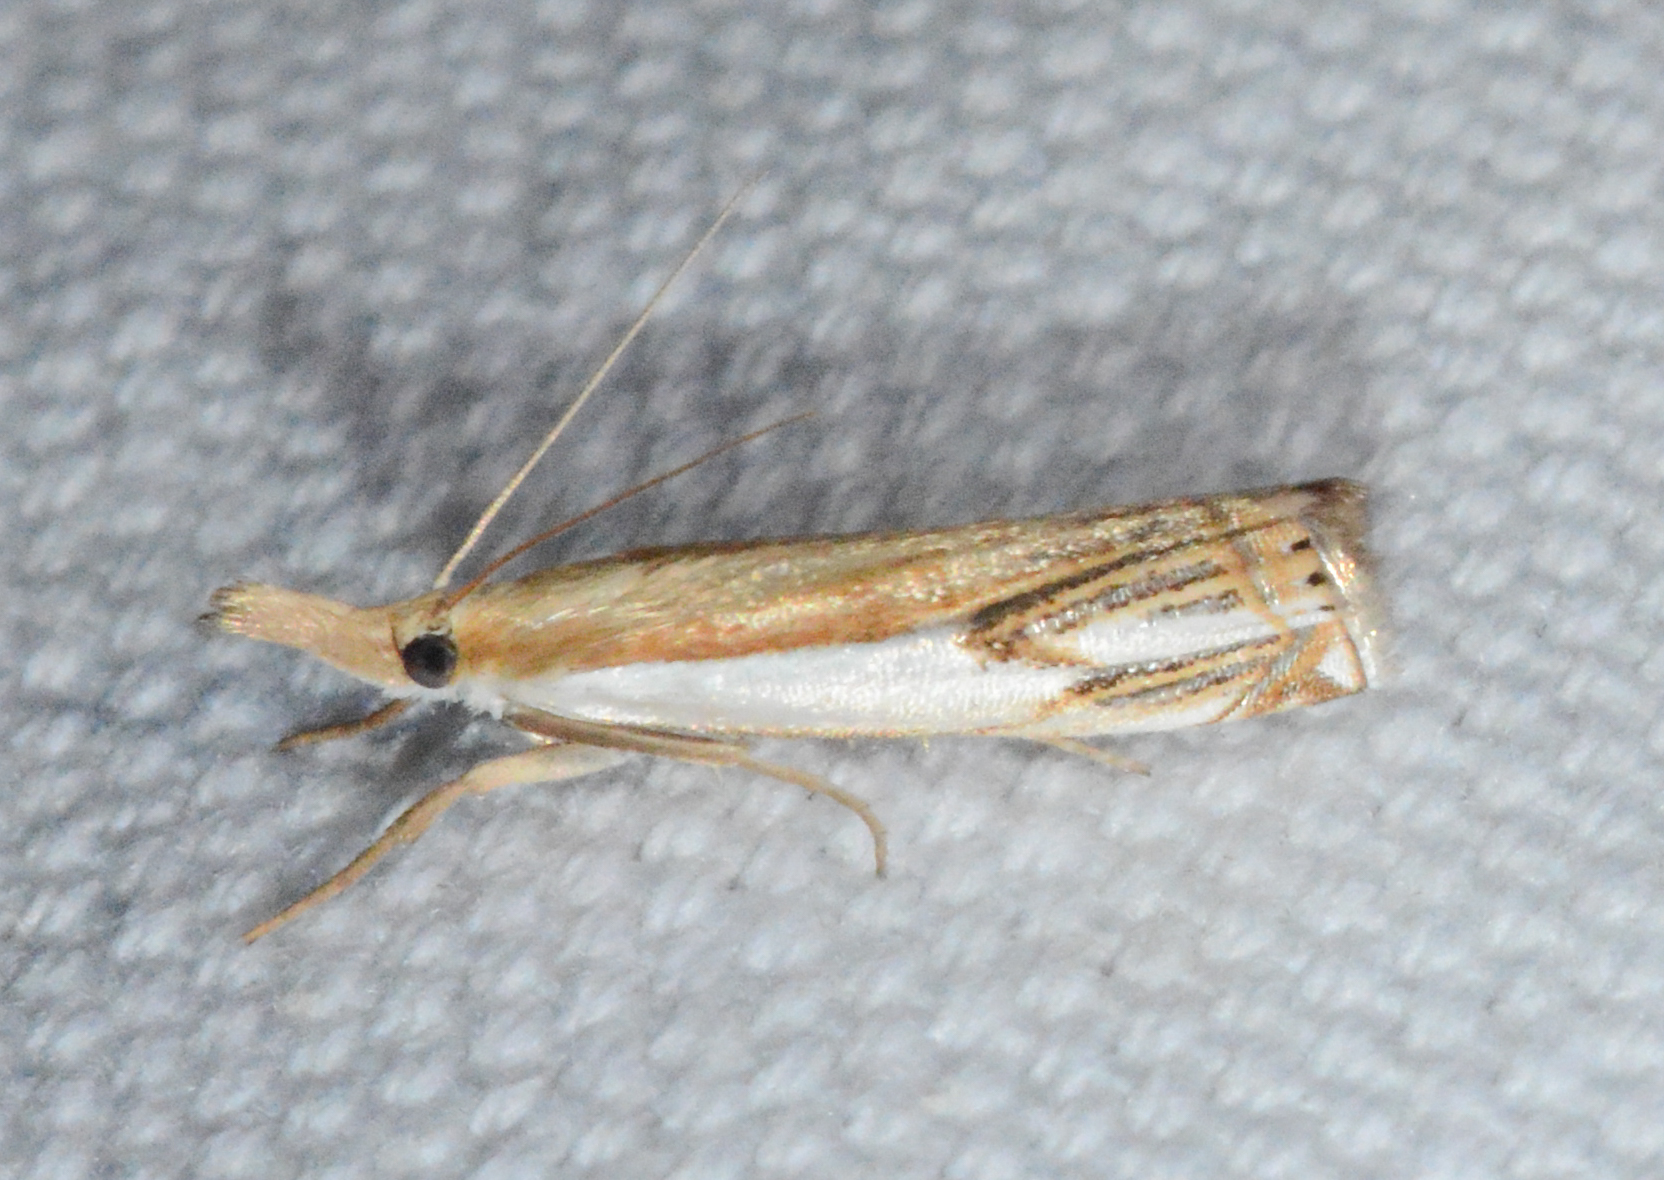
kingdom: Animalia
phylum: Arthropoda
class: Insecta
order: Lepidoptera
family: Crambidae
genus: Crambus
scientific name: Crambus agitatellus
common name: Double-banded grass-veneer
